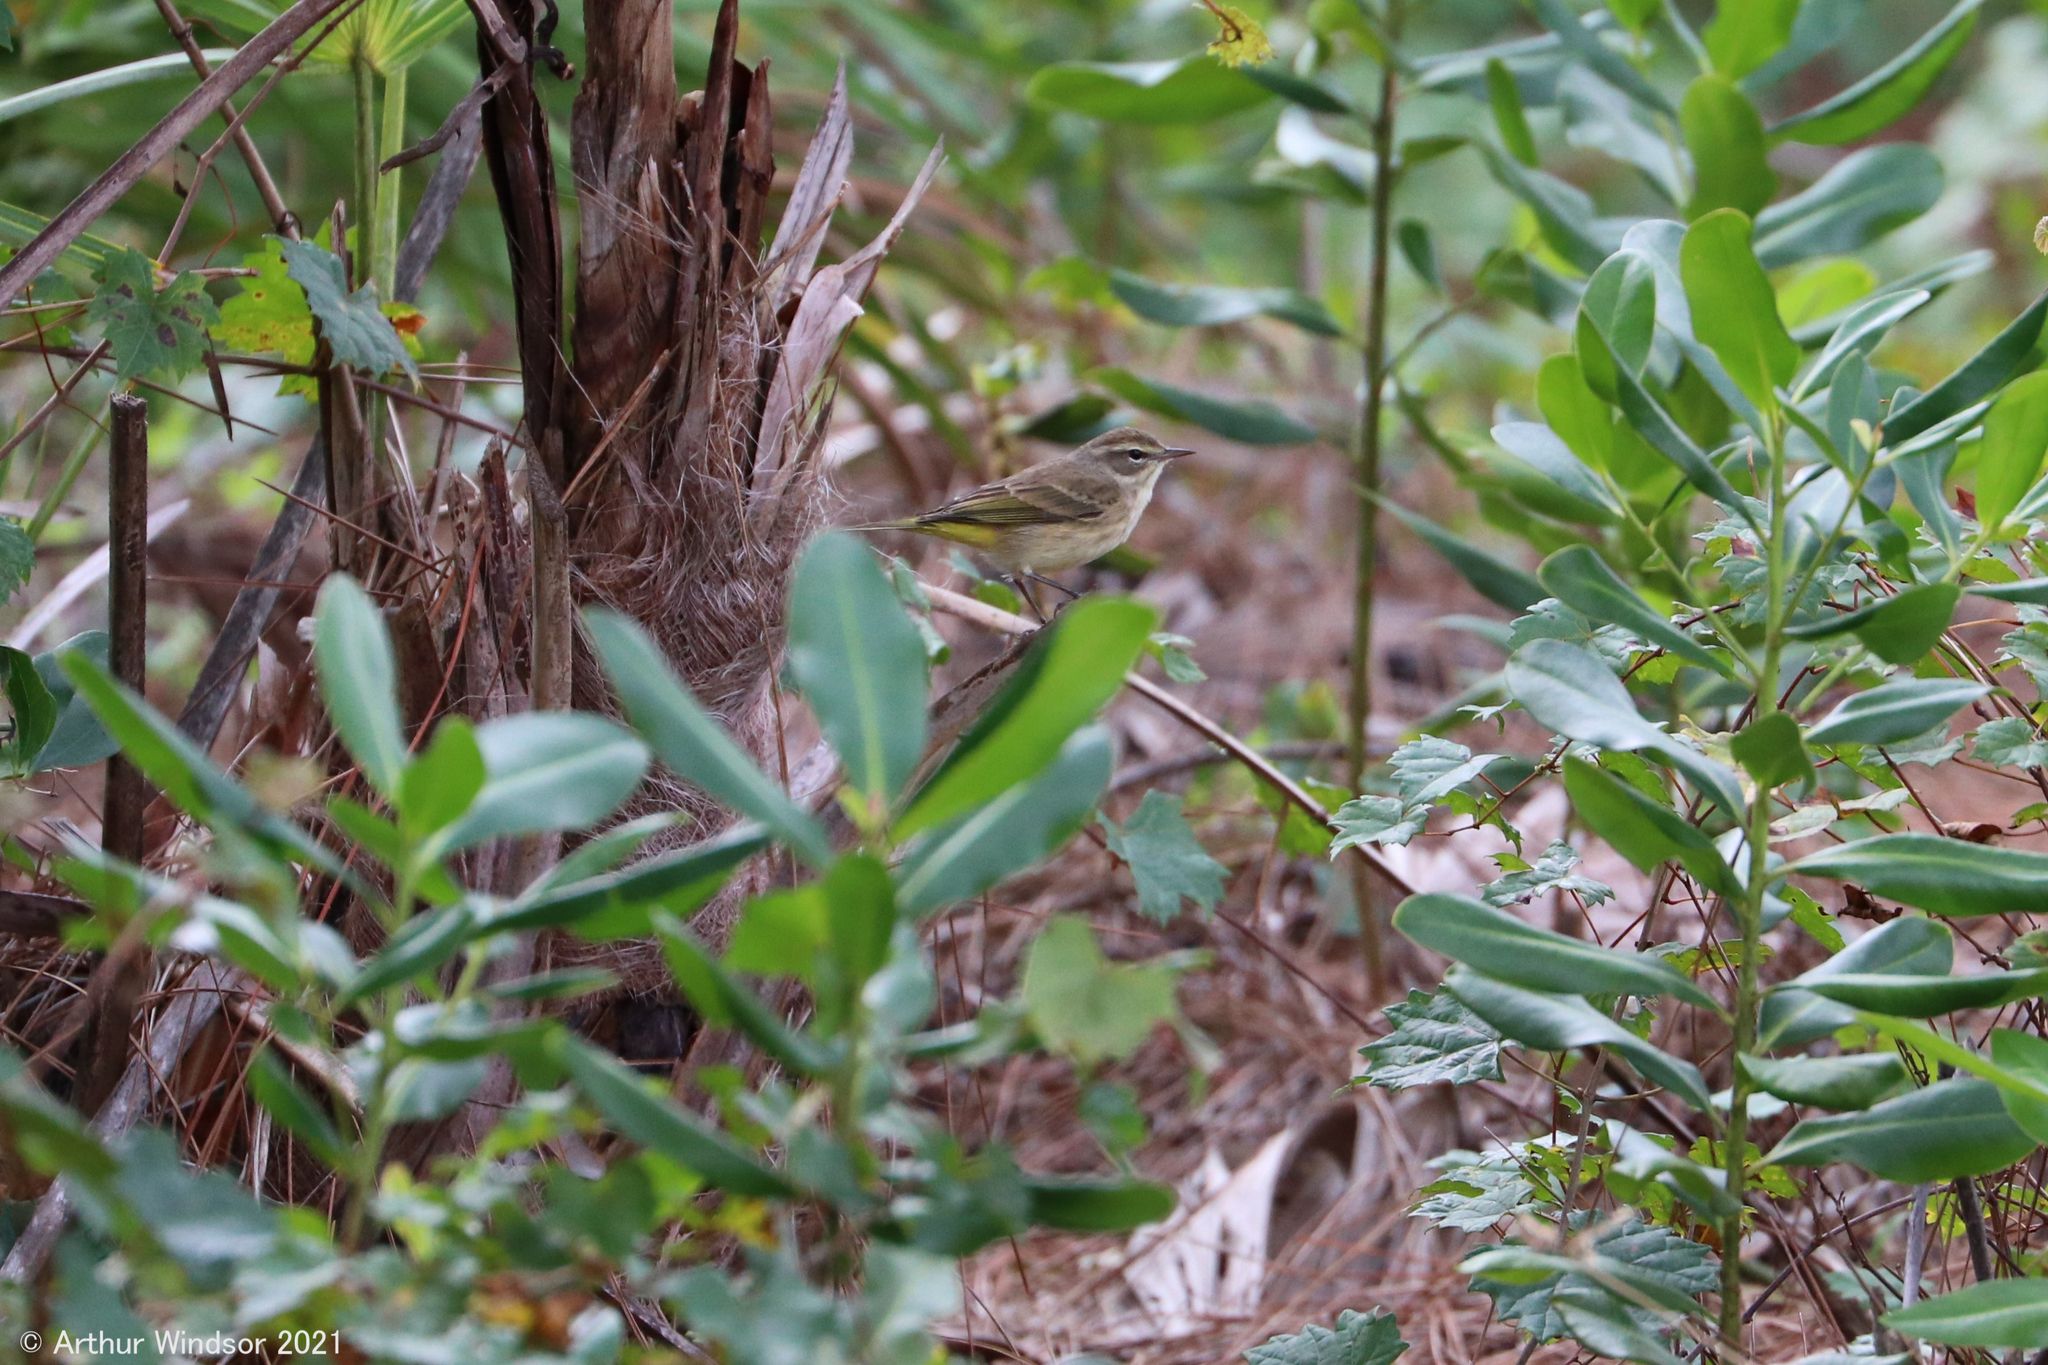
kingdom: Animalia
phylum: Chordata
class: Aves
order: Passeriformes
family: Parulidae
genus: Setophaga
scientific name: Setophaga palmarum
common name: Palm warbler
